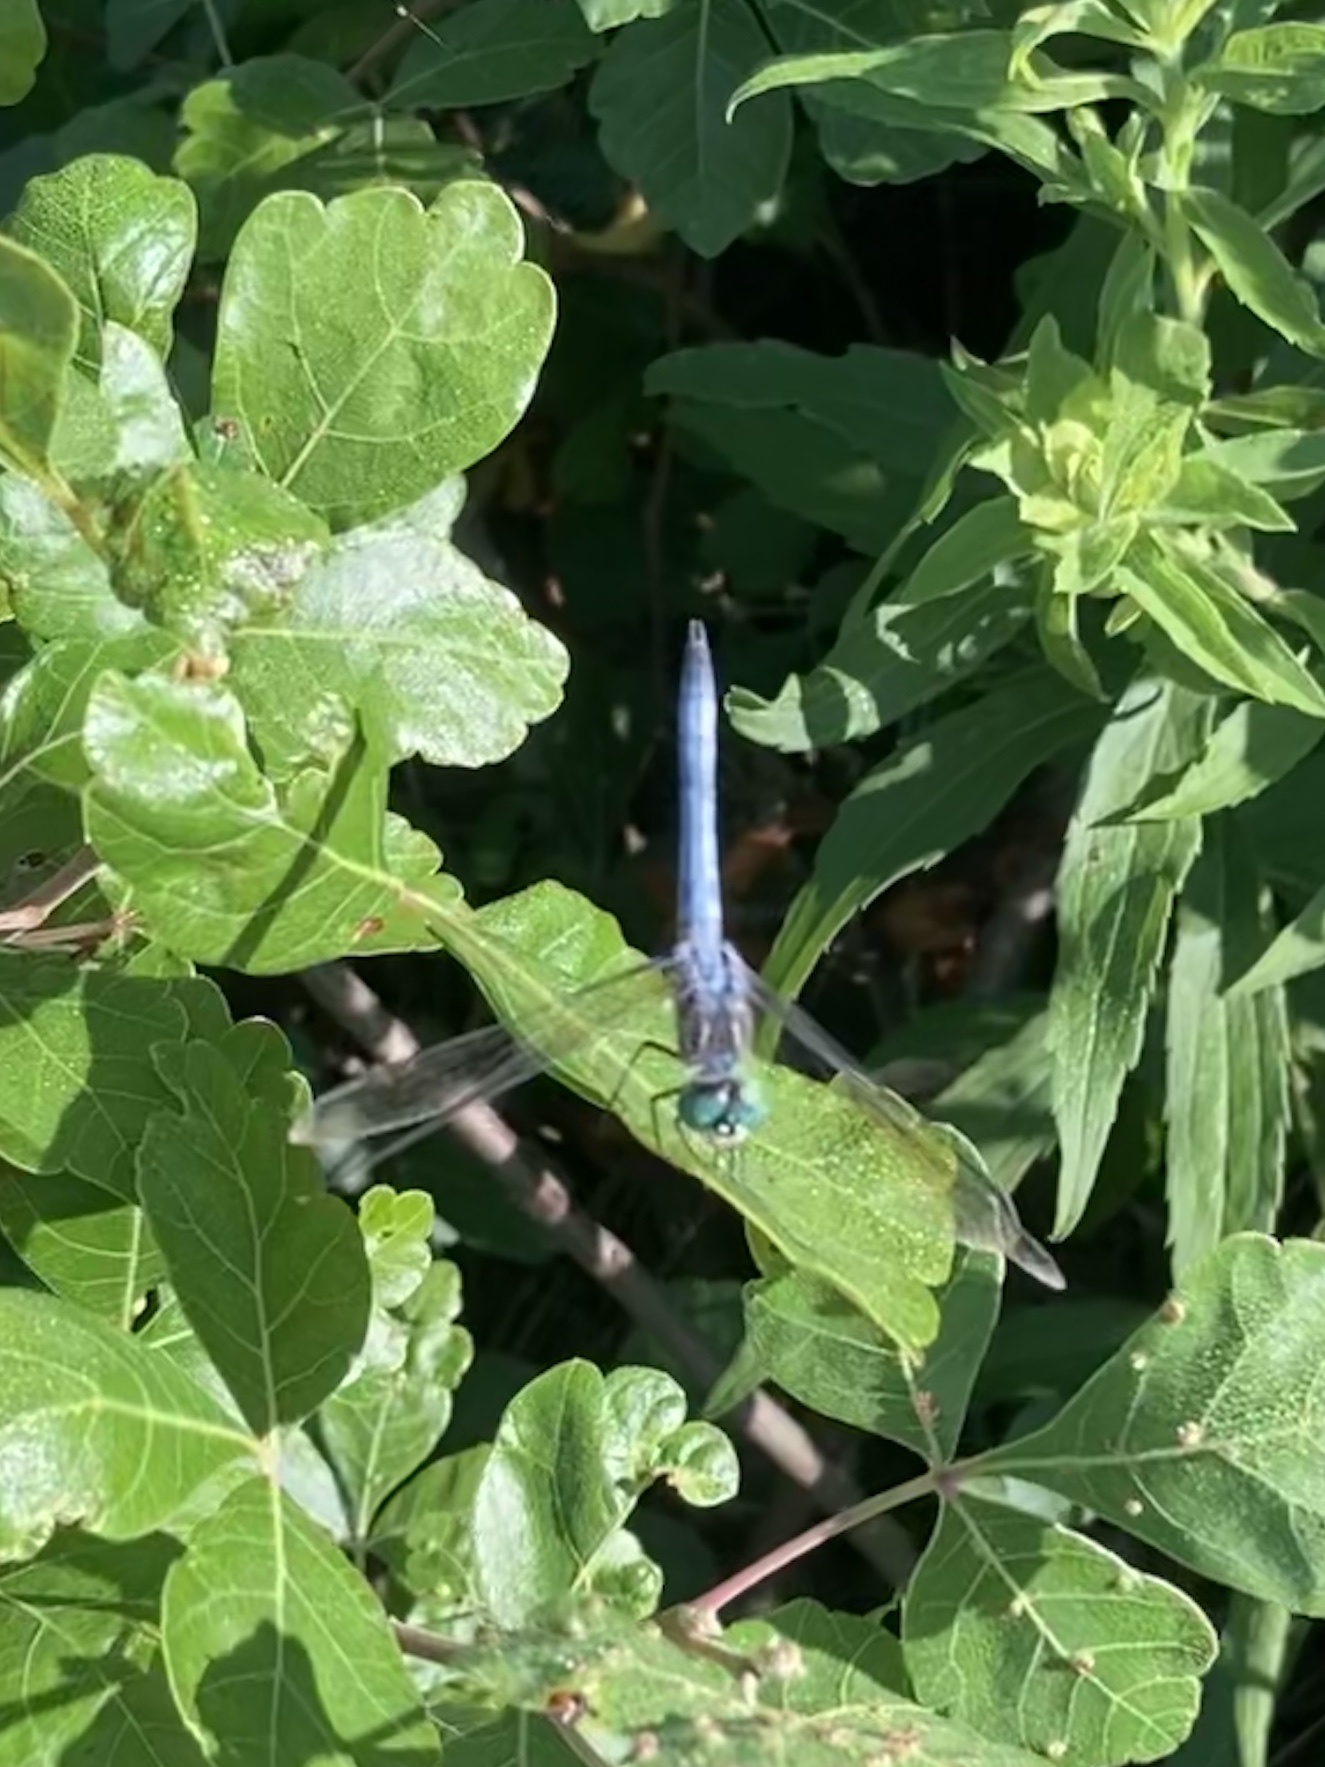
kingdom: Animalia
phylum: Arthropoda
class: Insecta
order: Odonata
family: Libellulidae
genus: Pachydiplax
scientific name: Pachydiplax longipennis
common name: Blue dasher
